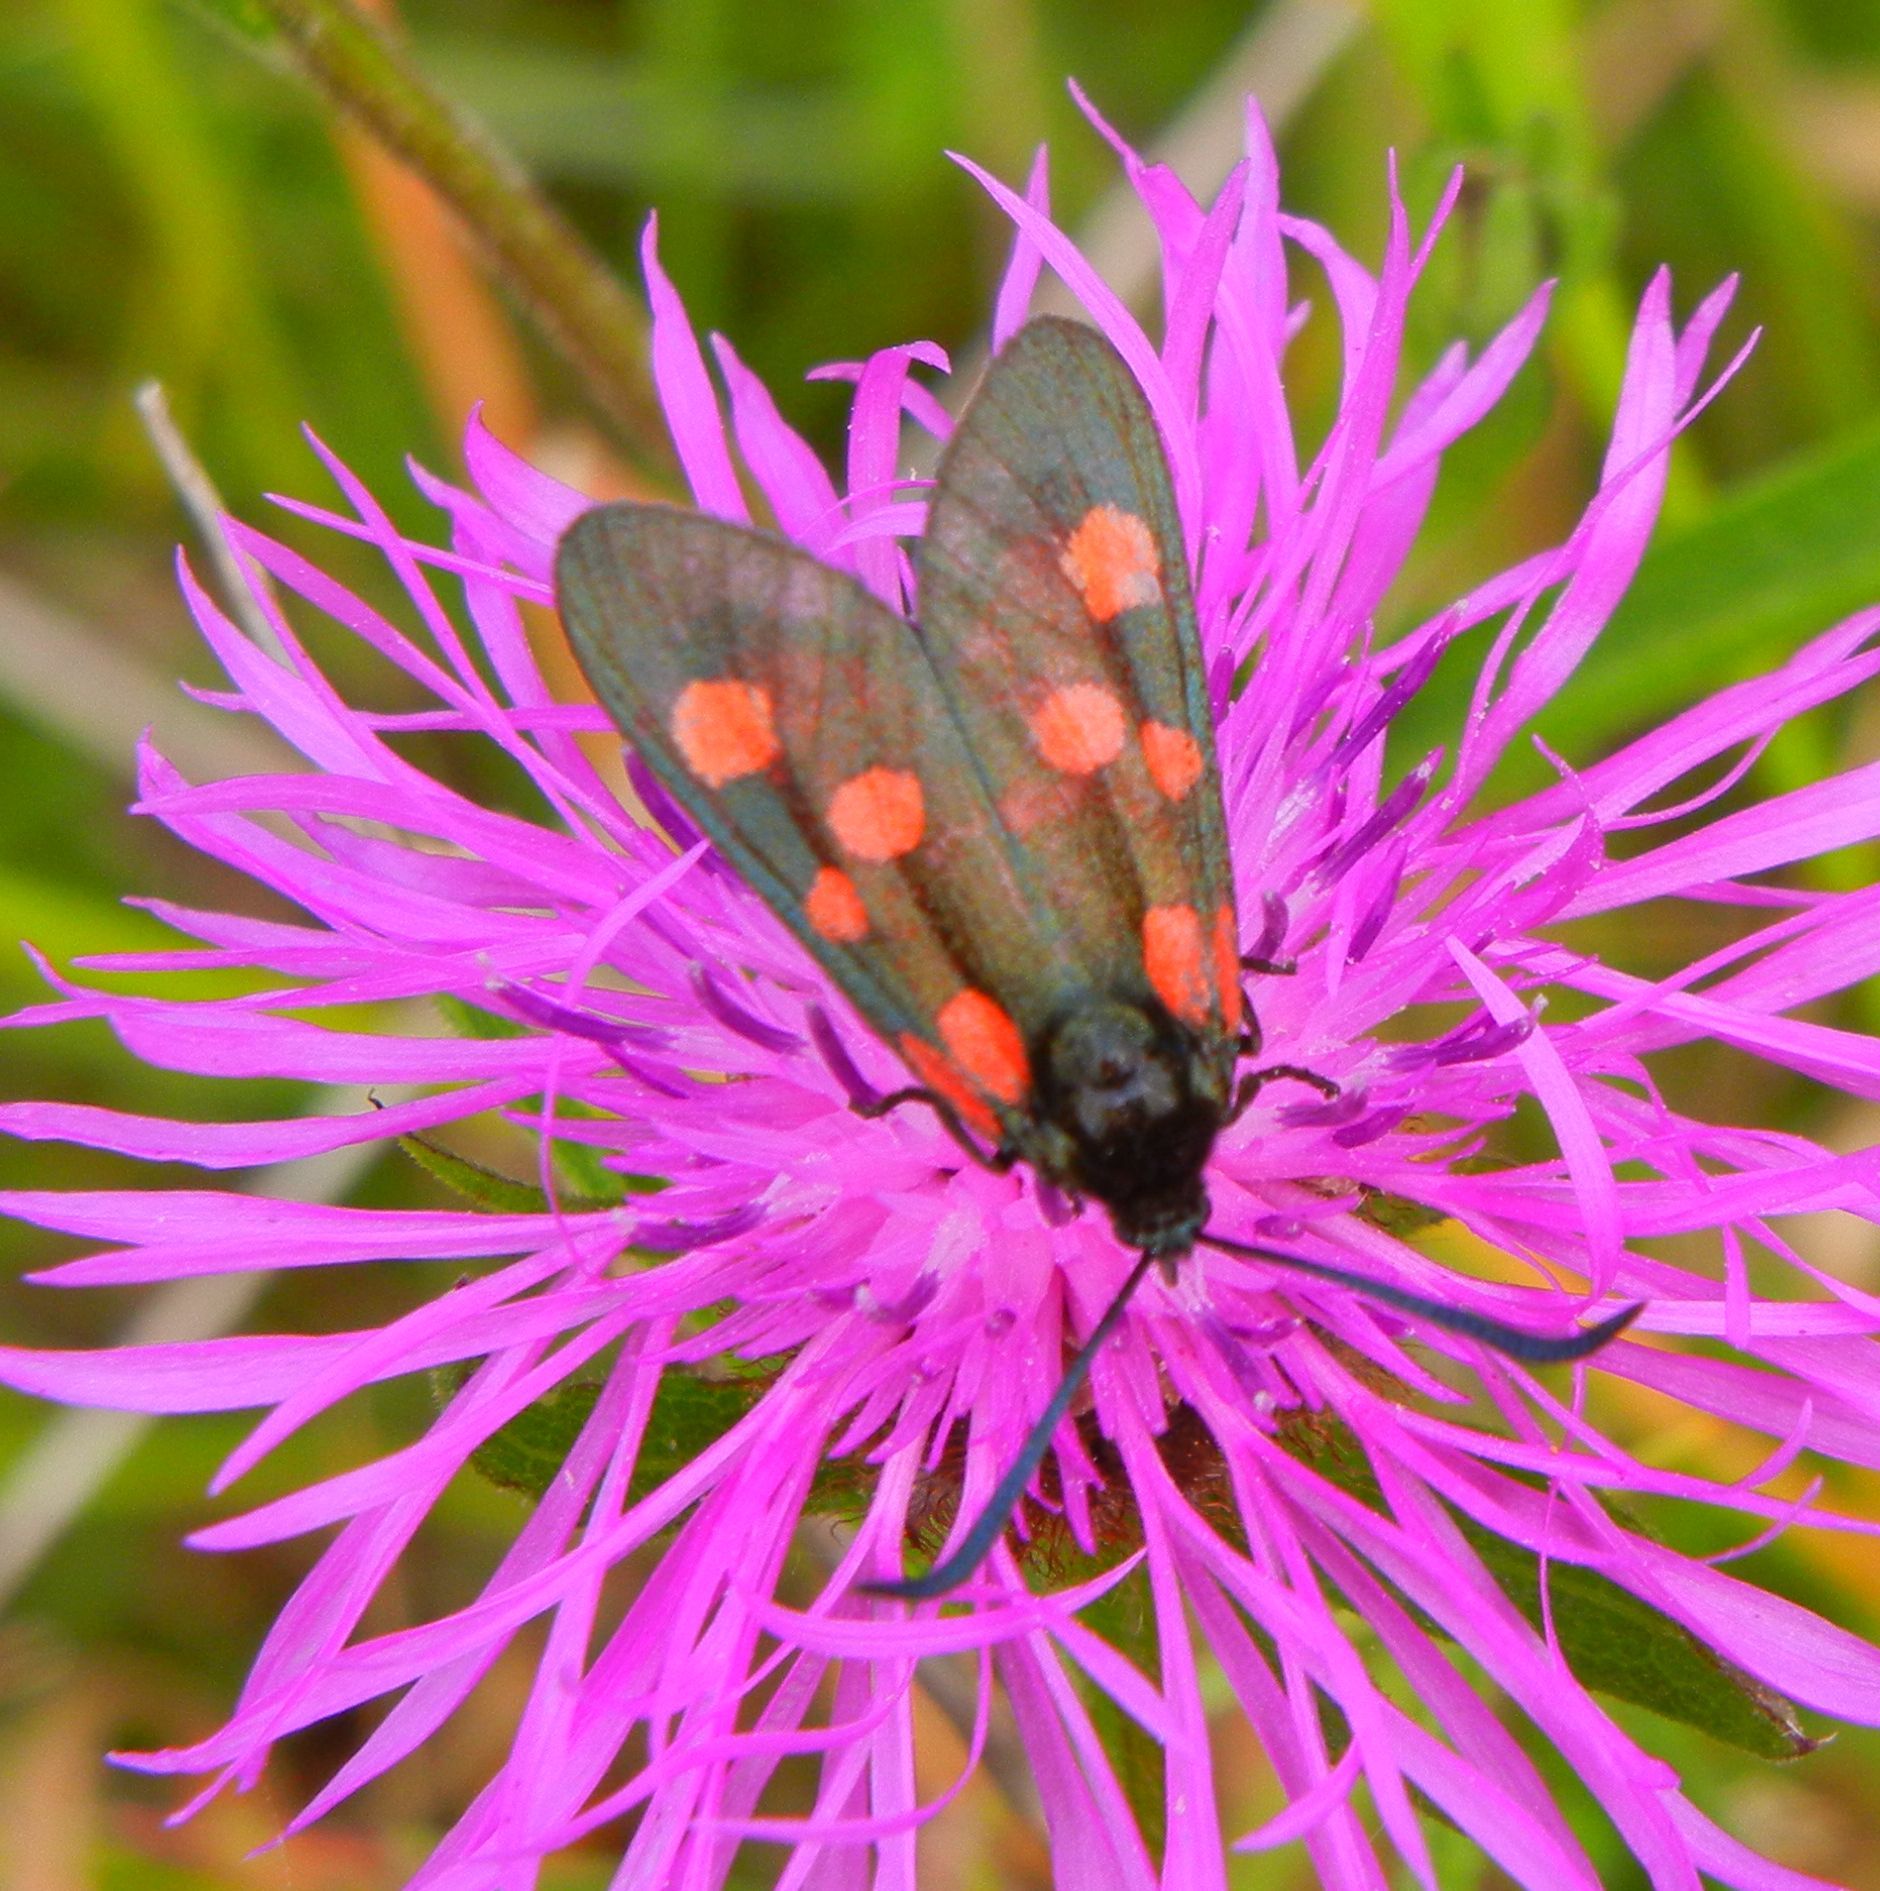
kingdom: Animalia
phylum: Arthropoda
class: Insecta
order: Lepidoptera
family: Zygaenidae
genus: Zygaena
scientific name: Zygaena lonicerae
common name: Narrow-bordered five-spot burnet
